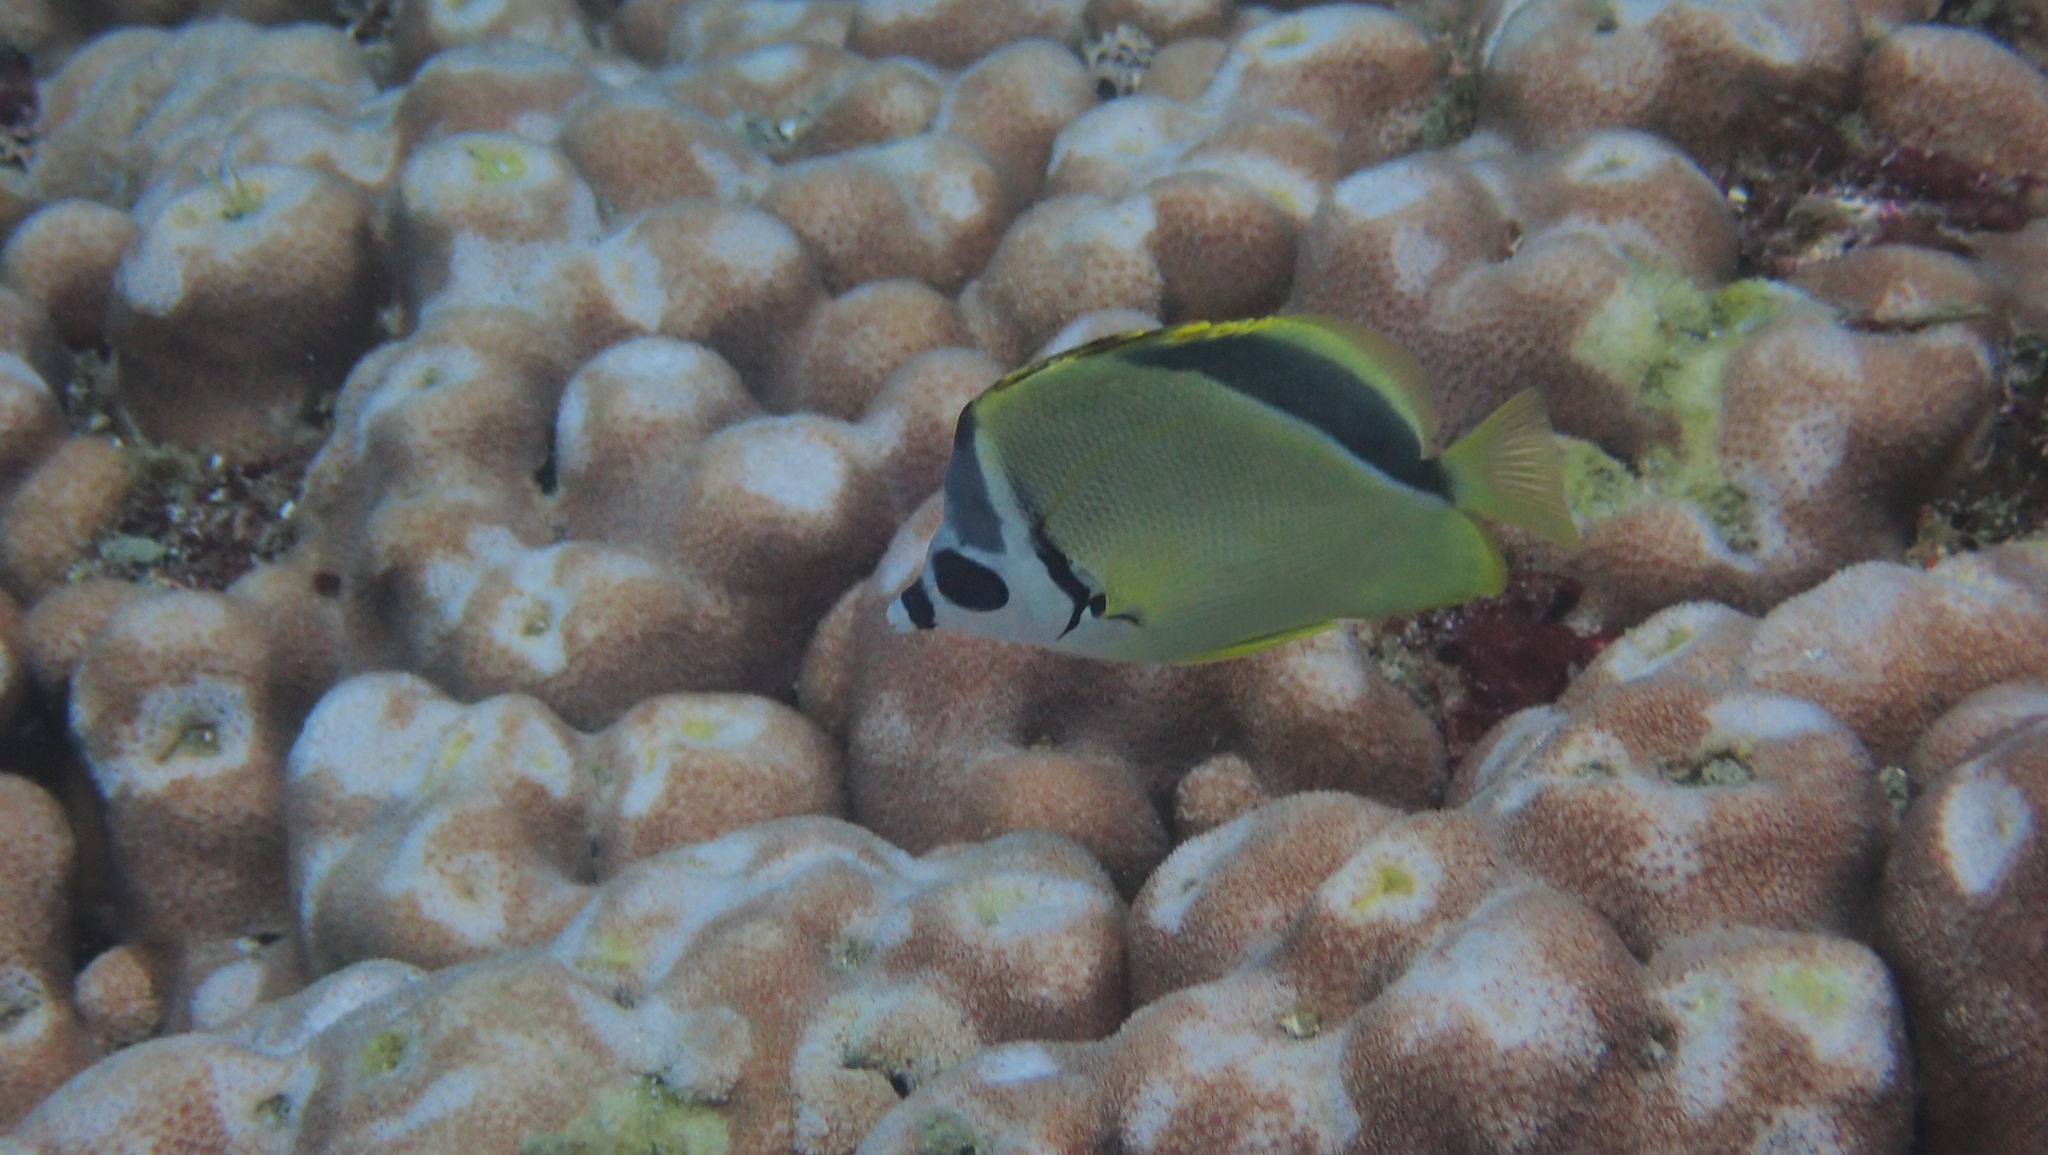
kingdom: Animalia
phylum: Chordata
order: Perciformes
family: Chaetodontidae
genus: Johnrandallia
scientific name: Johnrandallia nigrirostris
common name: Barberfish
